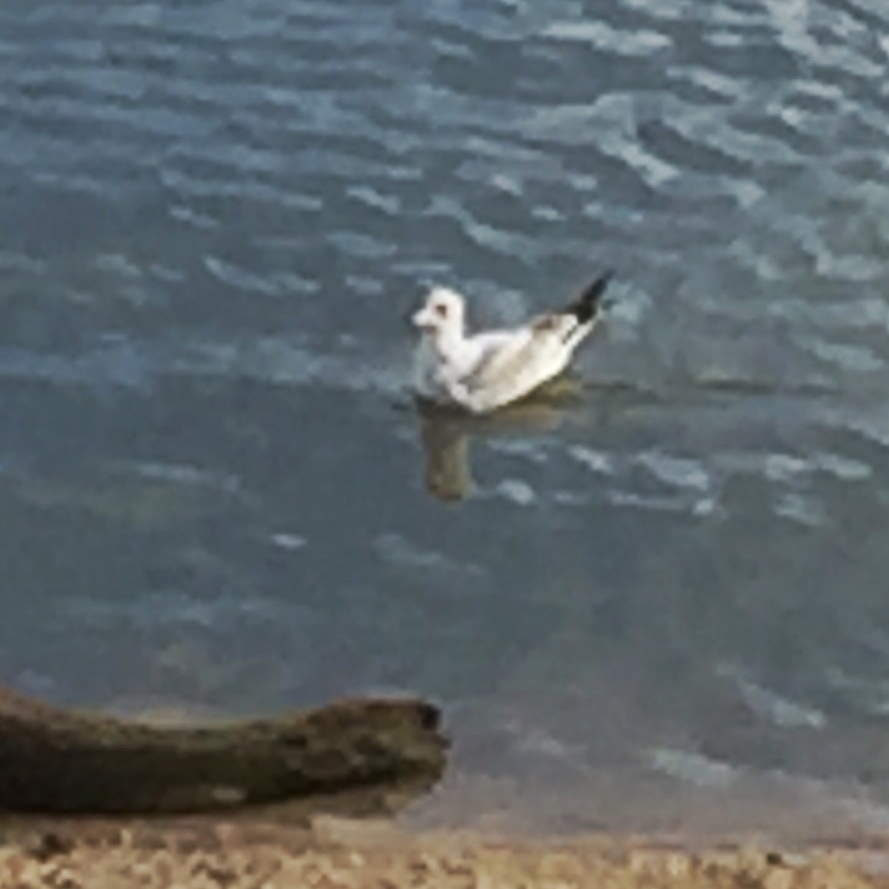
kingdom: Animalia
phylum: Chordata
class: Aves
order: Charadriiformes
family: Laridae
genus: Larus
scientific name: Larus delawarensis
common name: Ring-billed gull
